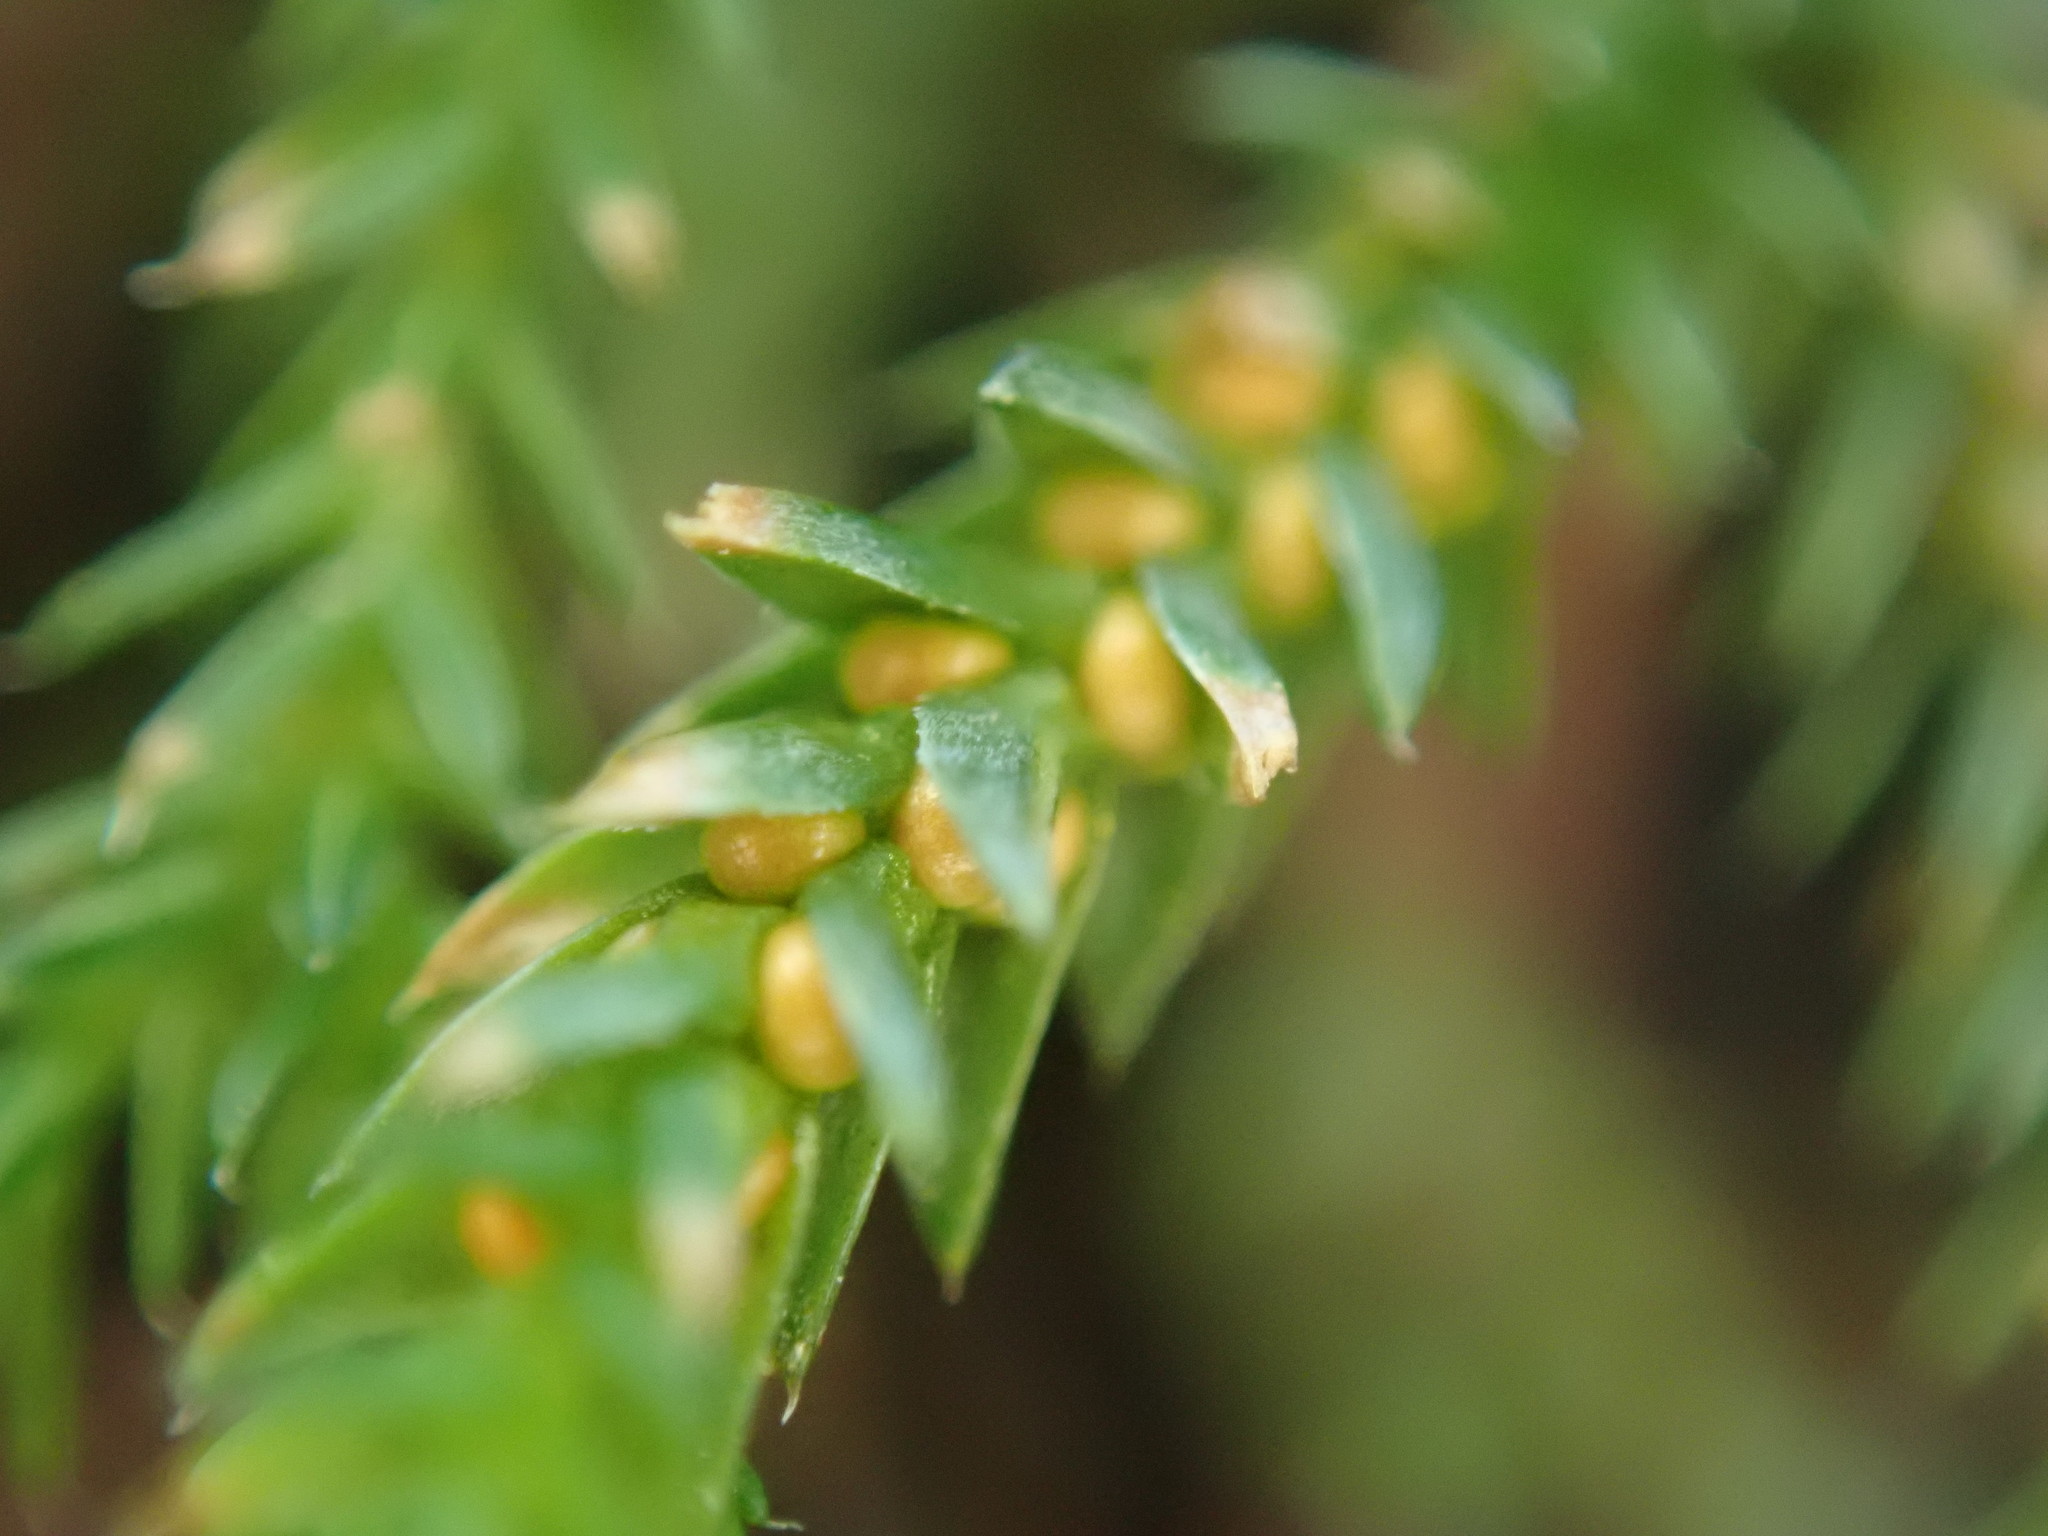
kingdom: Plantae
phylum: Tracheophyta
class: Lycopodiopsida
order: Selaginellales
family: Selaginellaceae
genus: Selaginella
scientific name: Selaginella wallacei
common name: Wallace's selaginella
